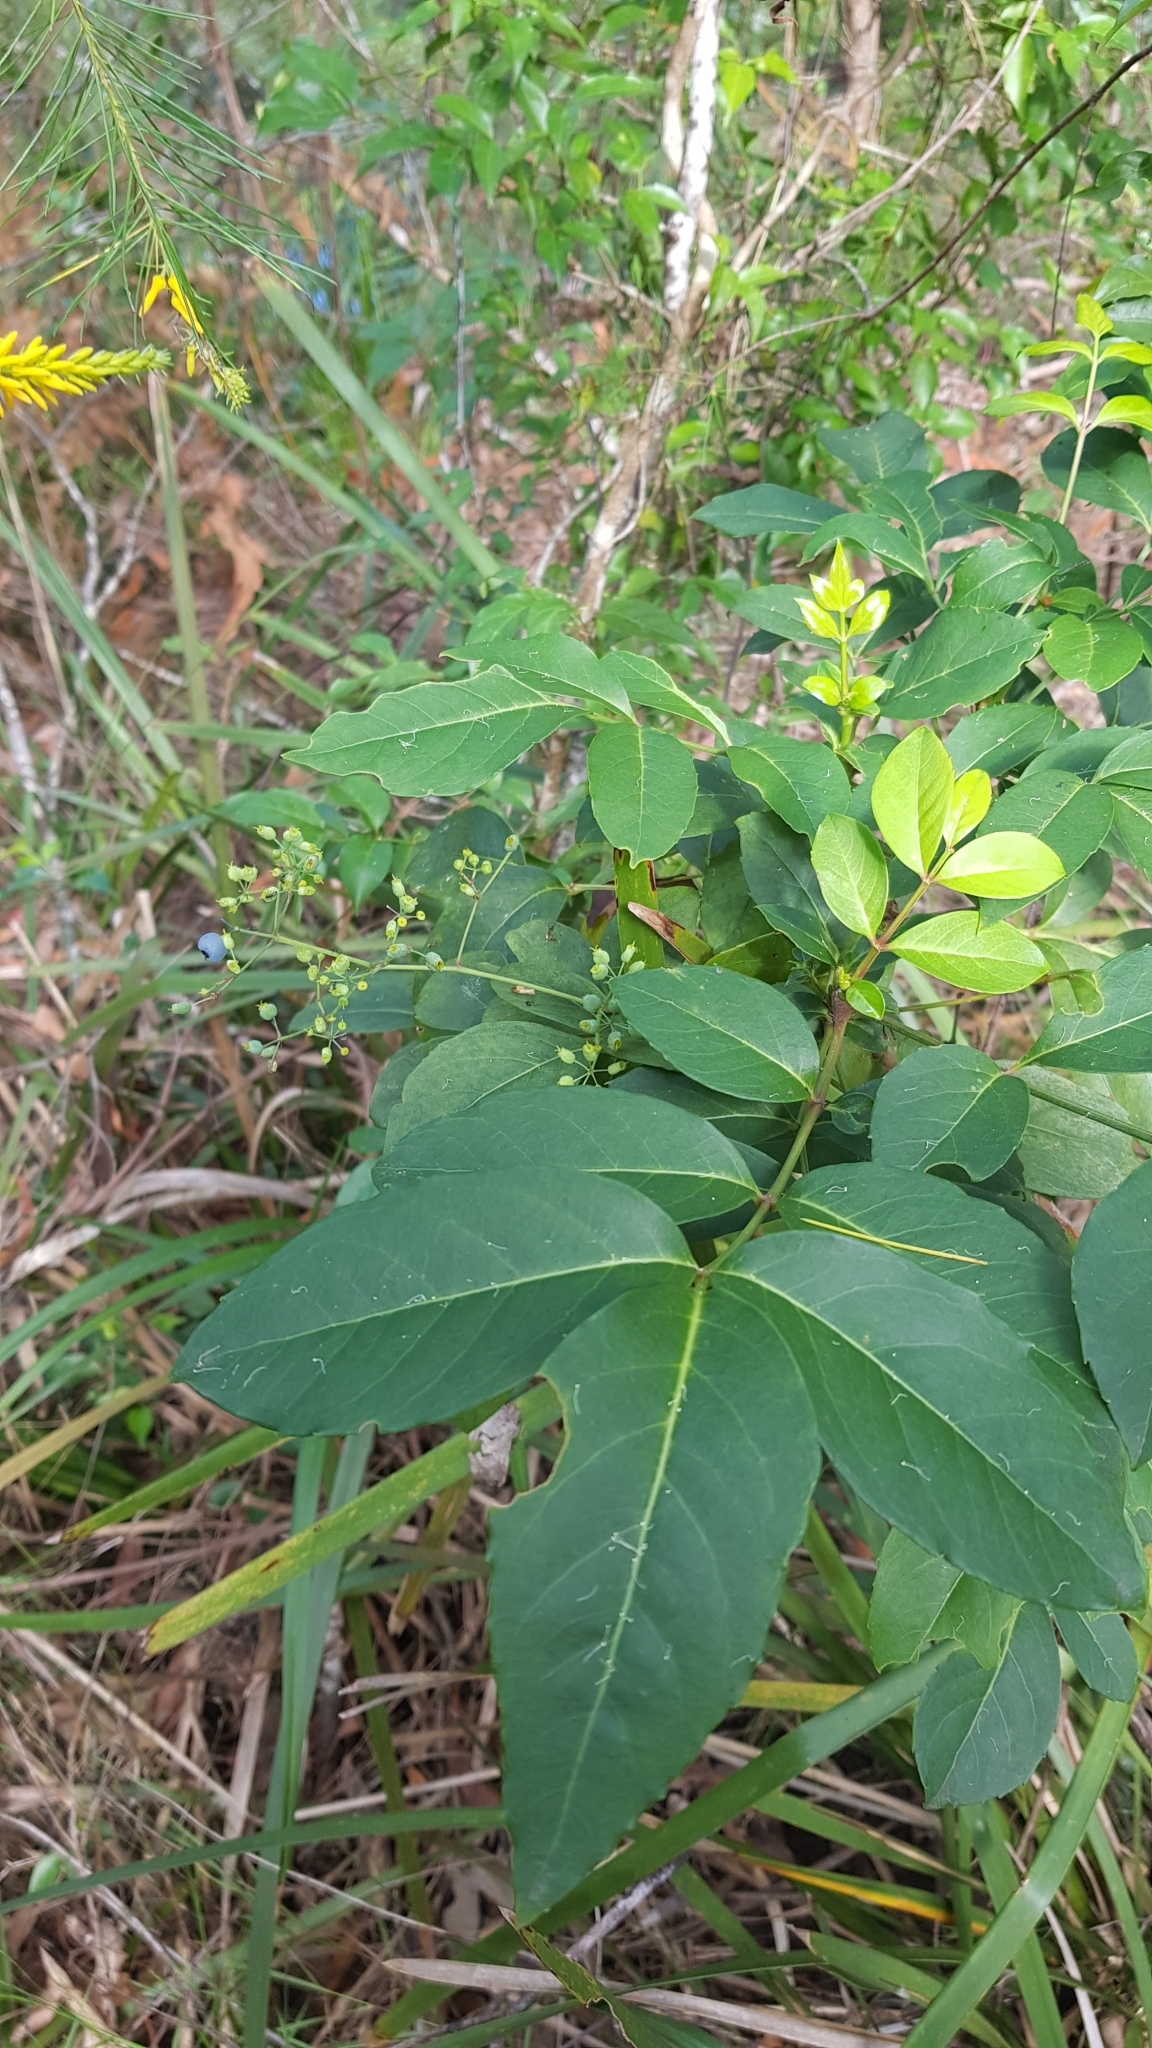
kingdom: Plantae
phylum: Tracheophyta
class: Magnoliopsida
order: Apiales
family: Araliaceae
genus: Polyscias
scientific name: Polyscias sambucifolia
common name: Elderberry-ash
